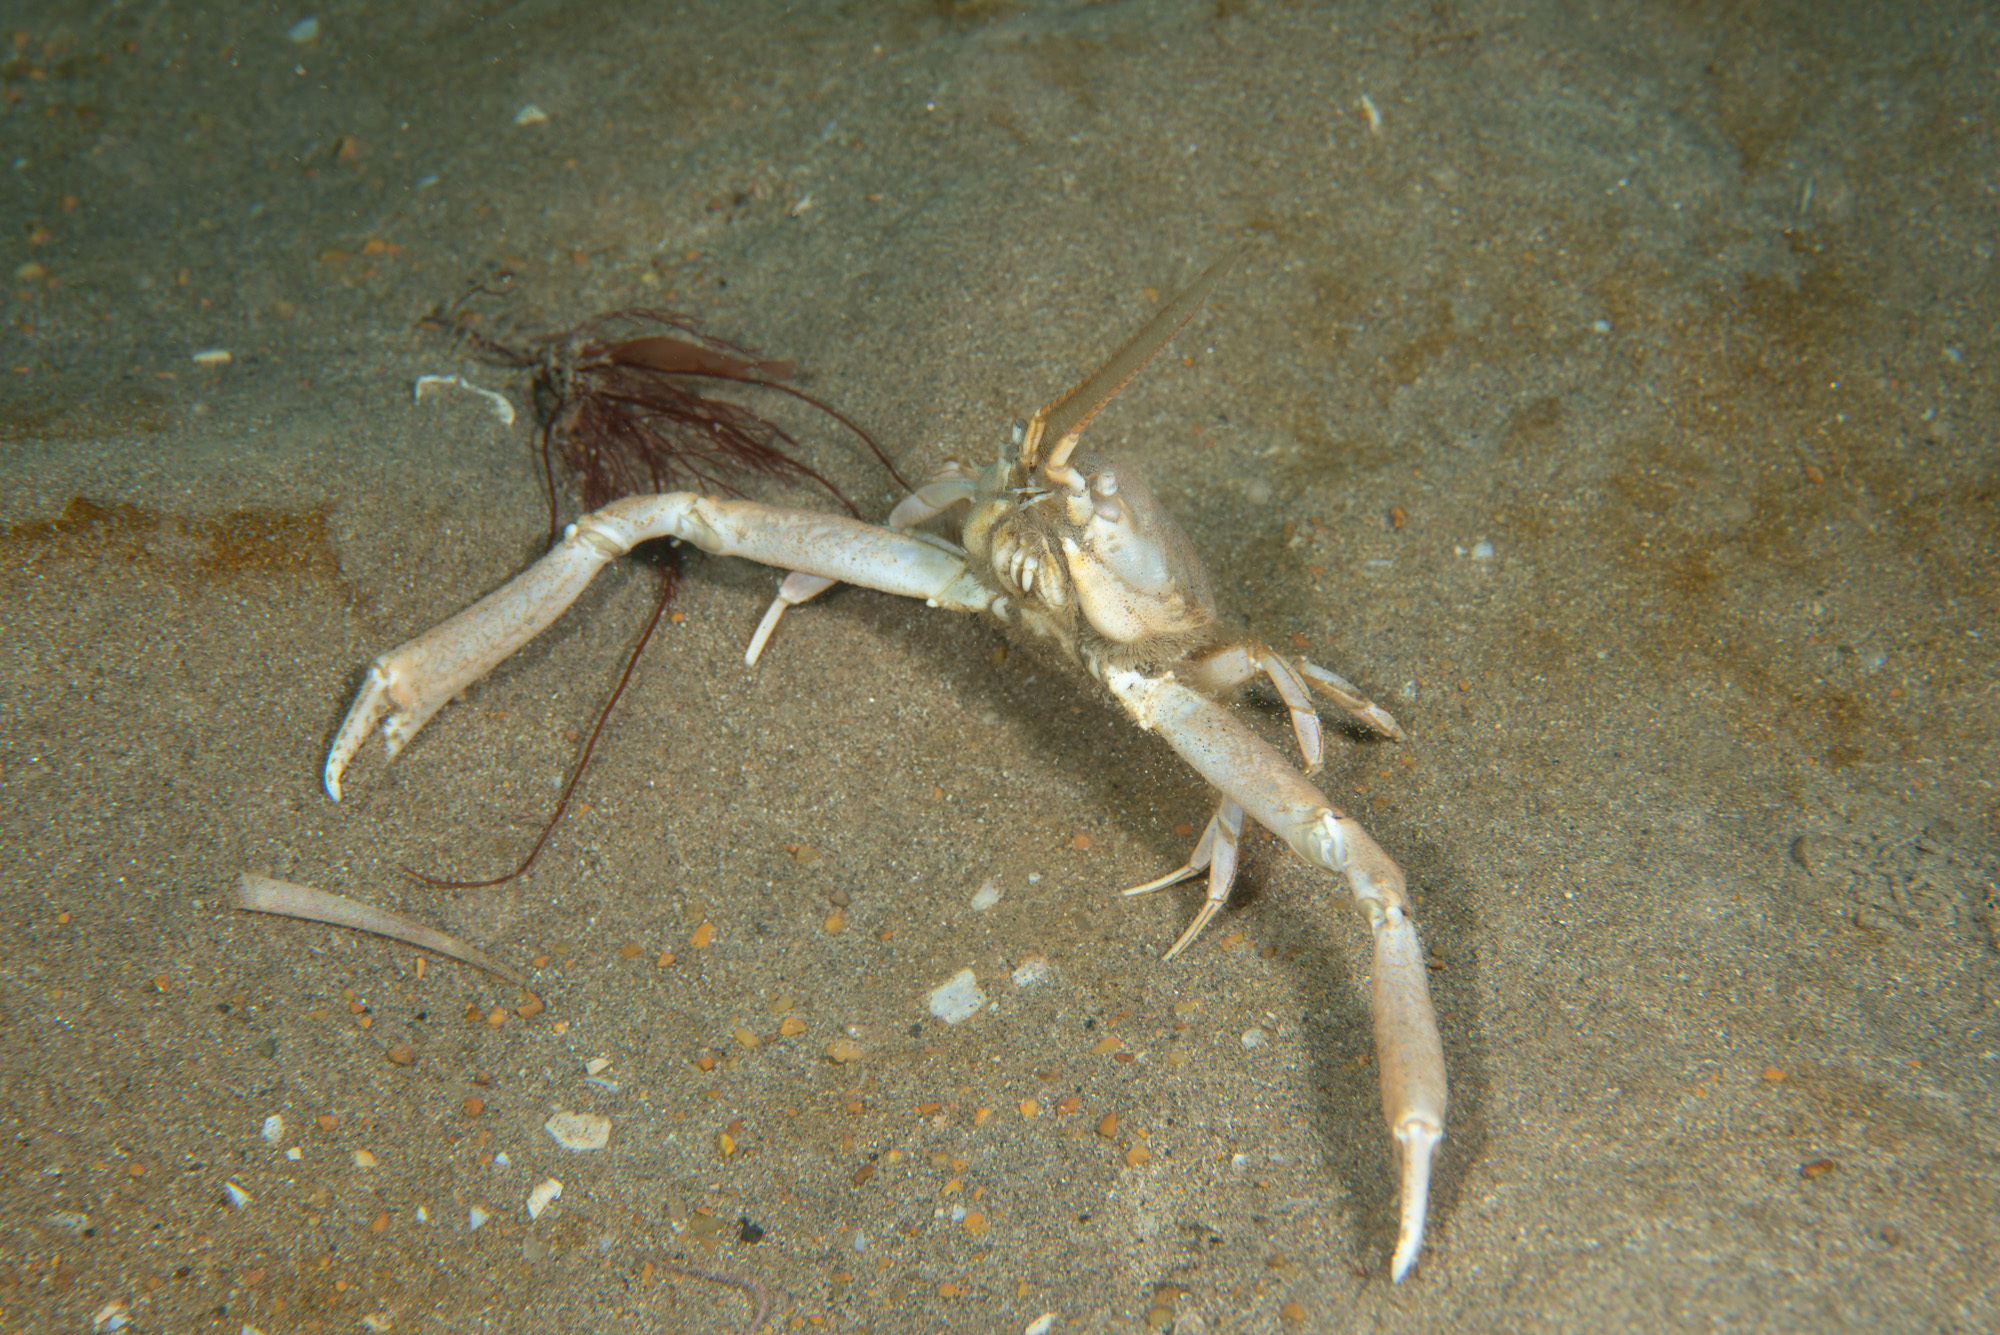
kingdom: Animalia
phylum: Arthropoda
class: Malacostraca
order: Decapoda
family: Corystidae
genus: Corystes
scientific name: Corystes cassivelaunus
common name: Masked crab
